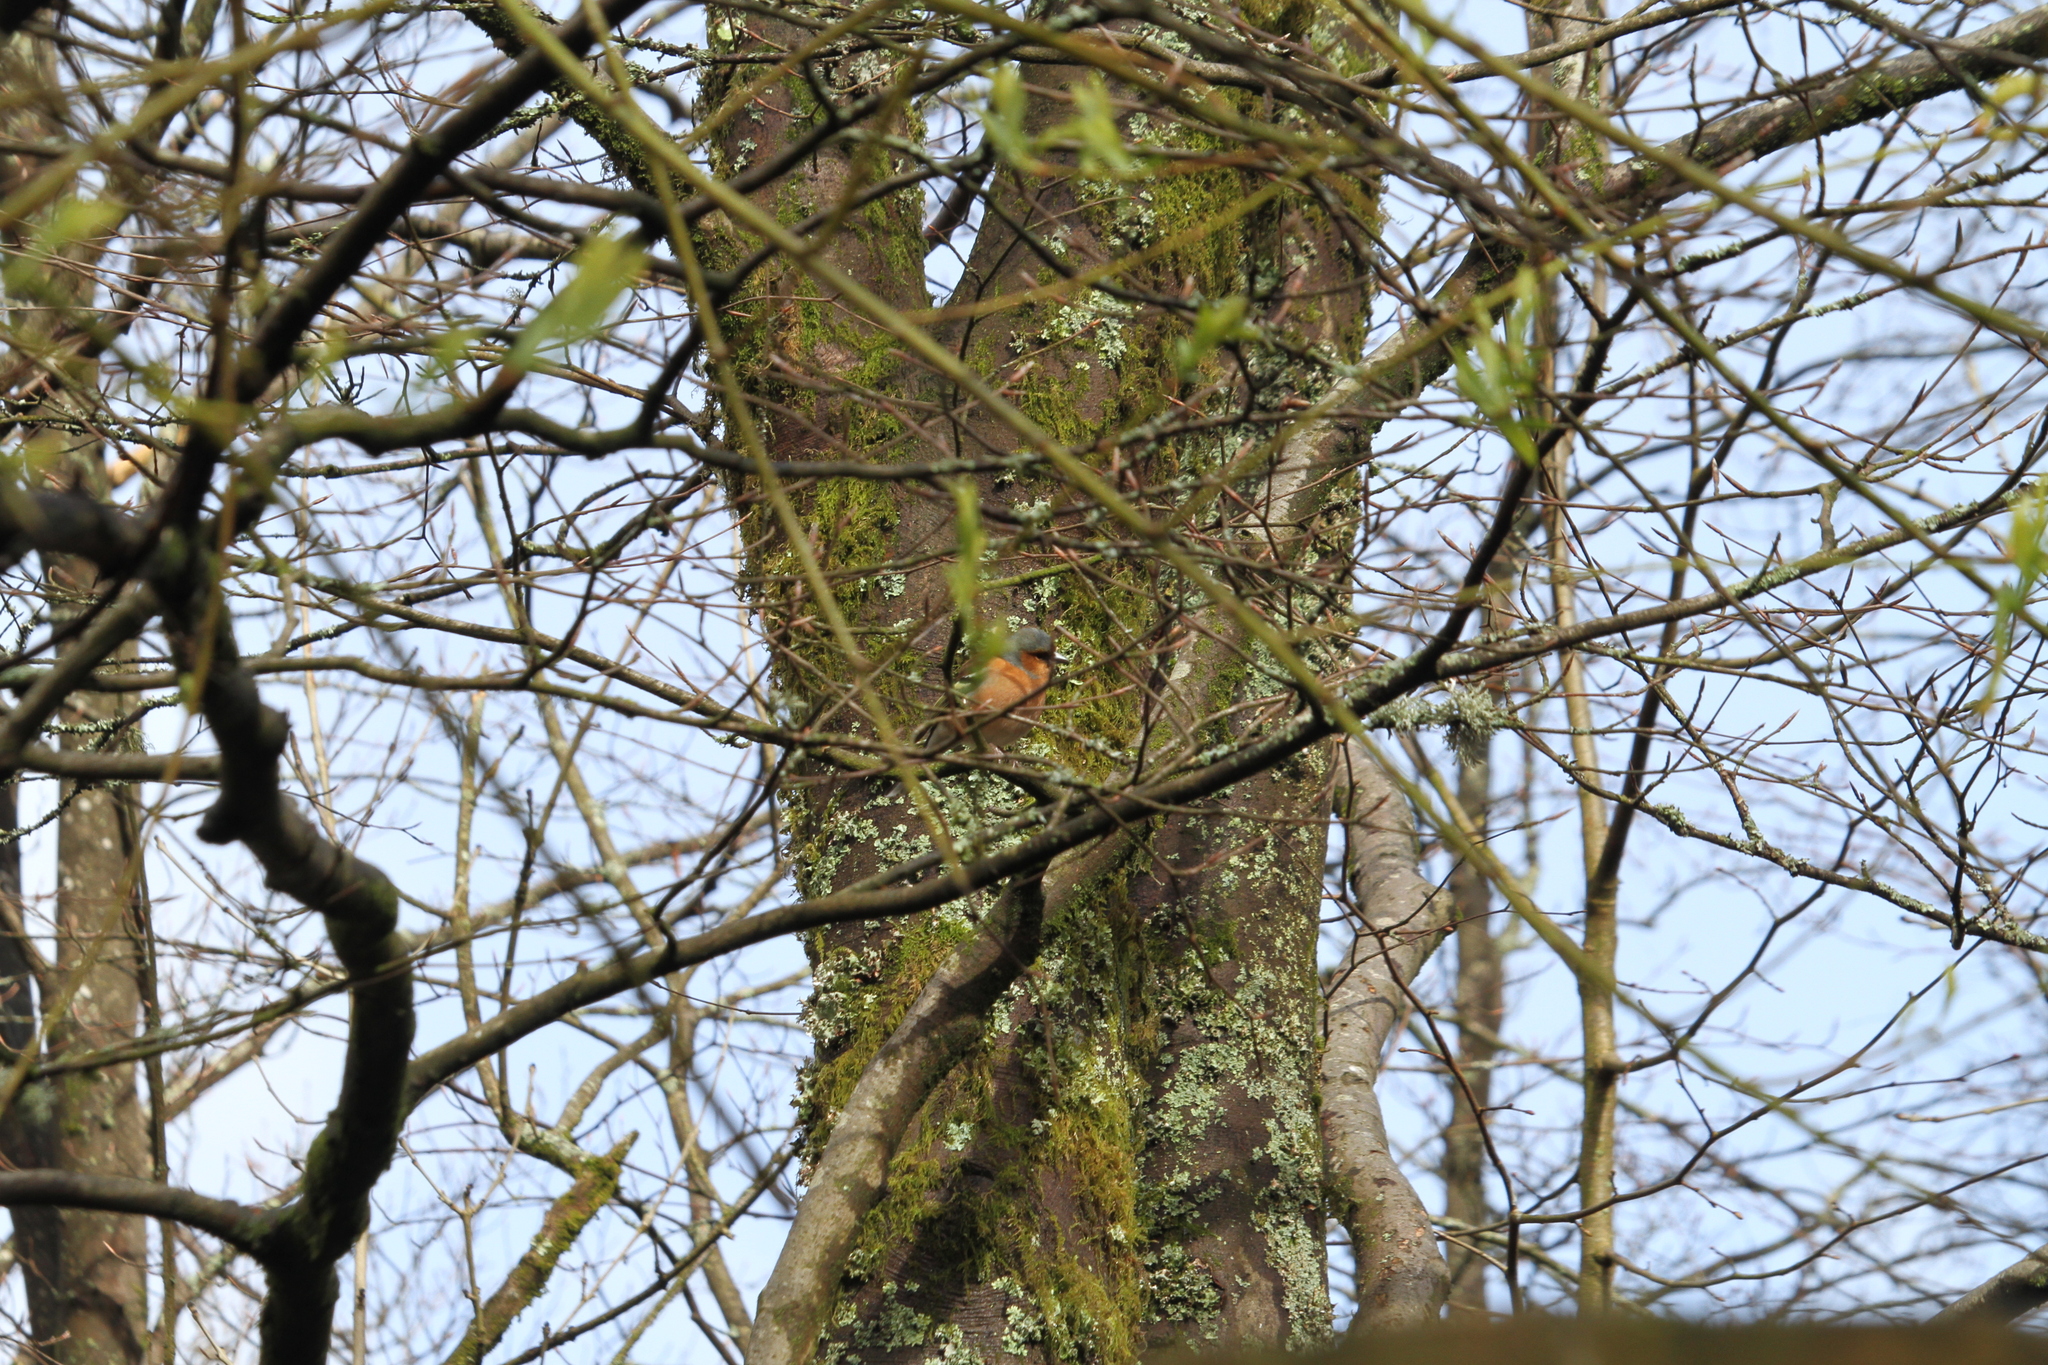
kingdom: Animalia
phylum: Chordata
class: Aves
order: Passeriformes
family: Fringillidae
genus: Fringilla
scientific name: Fringilla coelebs
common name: Common chaffinch
